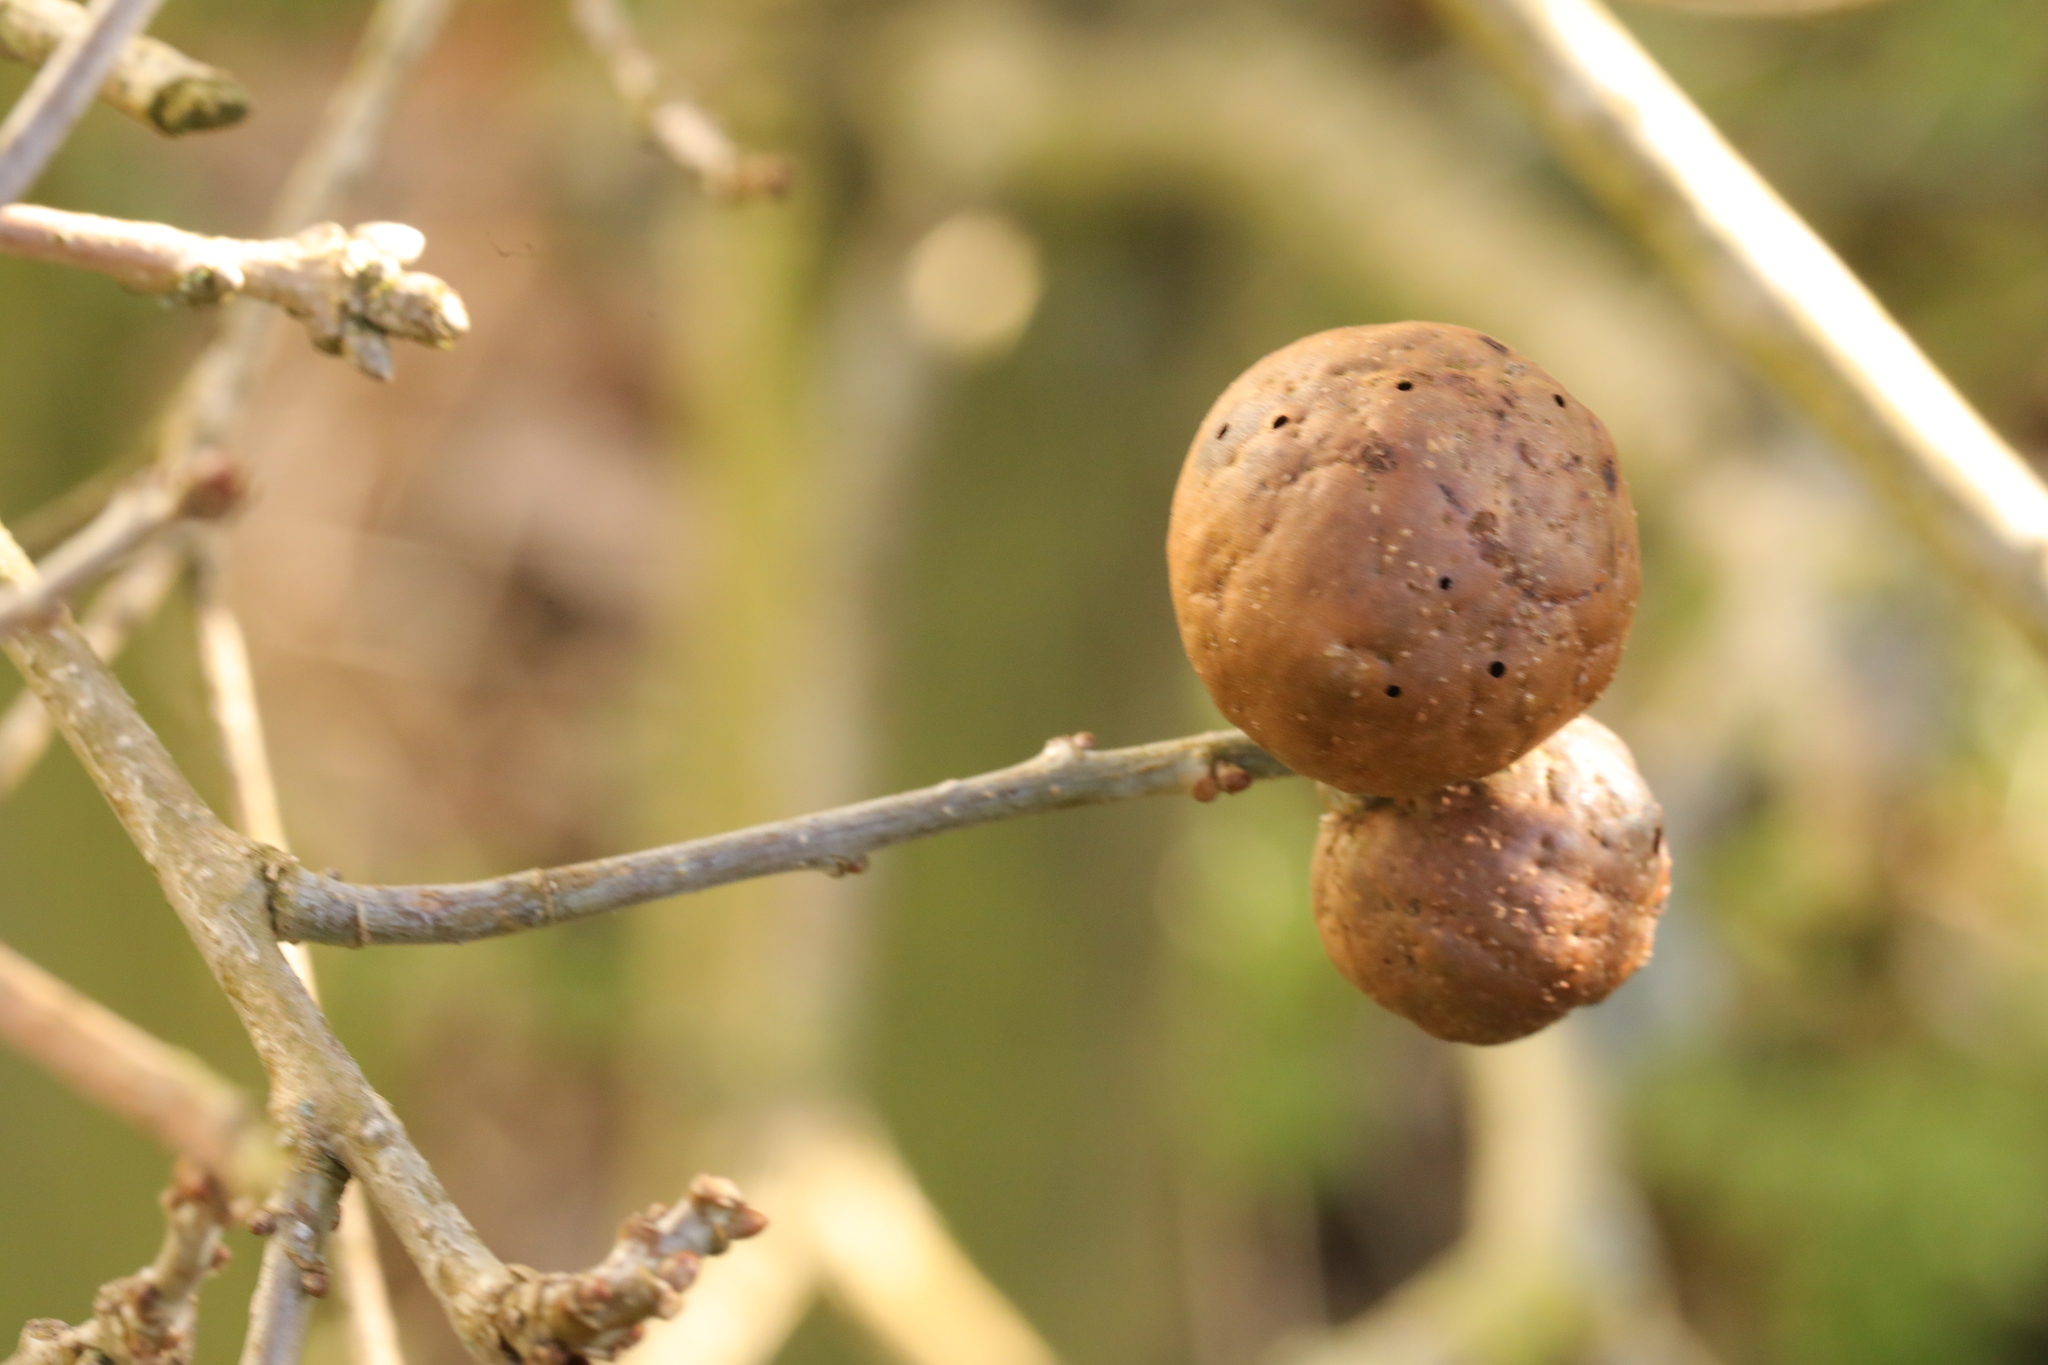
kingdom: Animalia
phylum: Arthropoda
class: Insecta
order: Hymenoptera
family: Cynipidae
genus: Andricus
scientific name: Andricus kollari
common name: Marble gall
